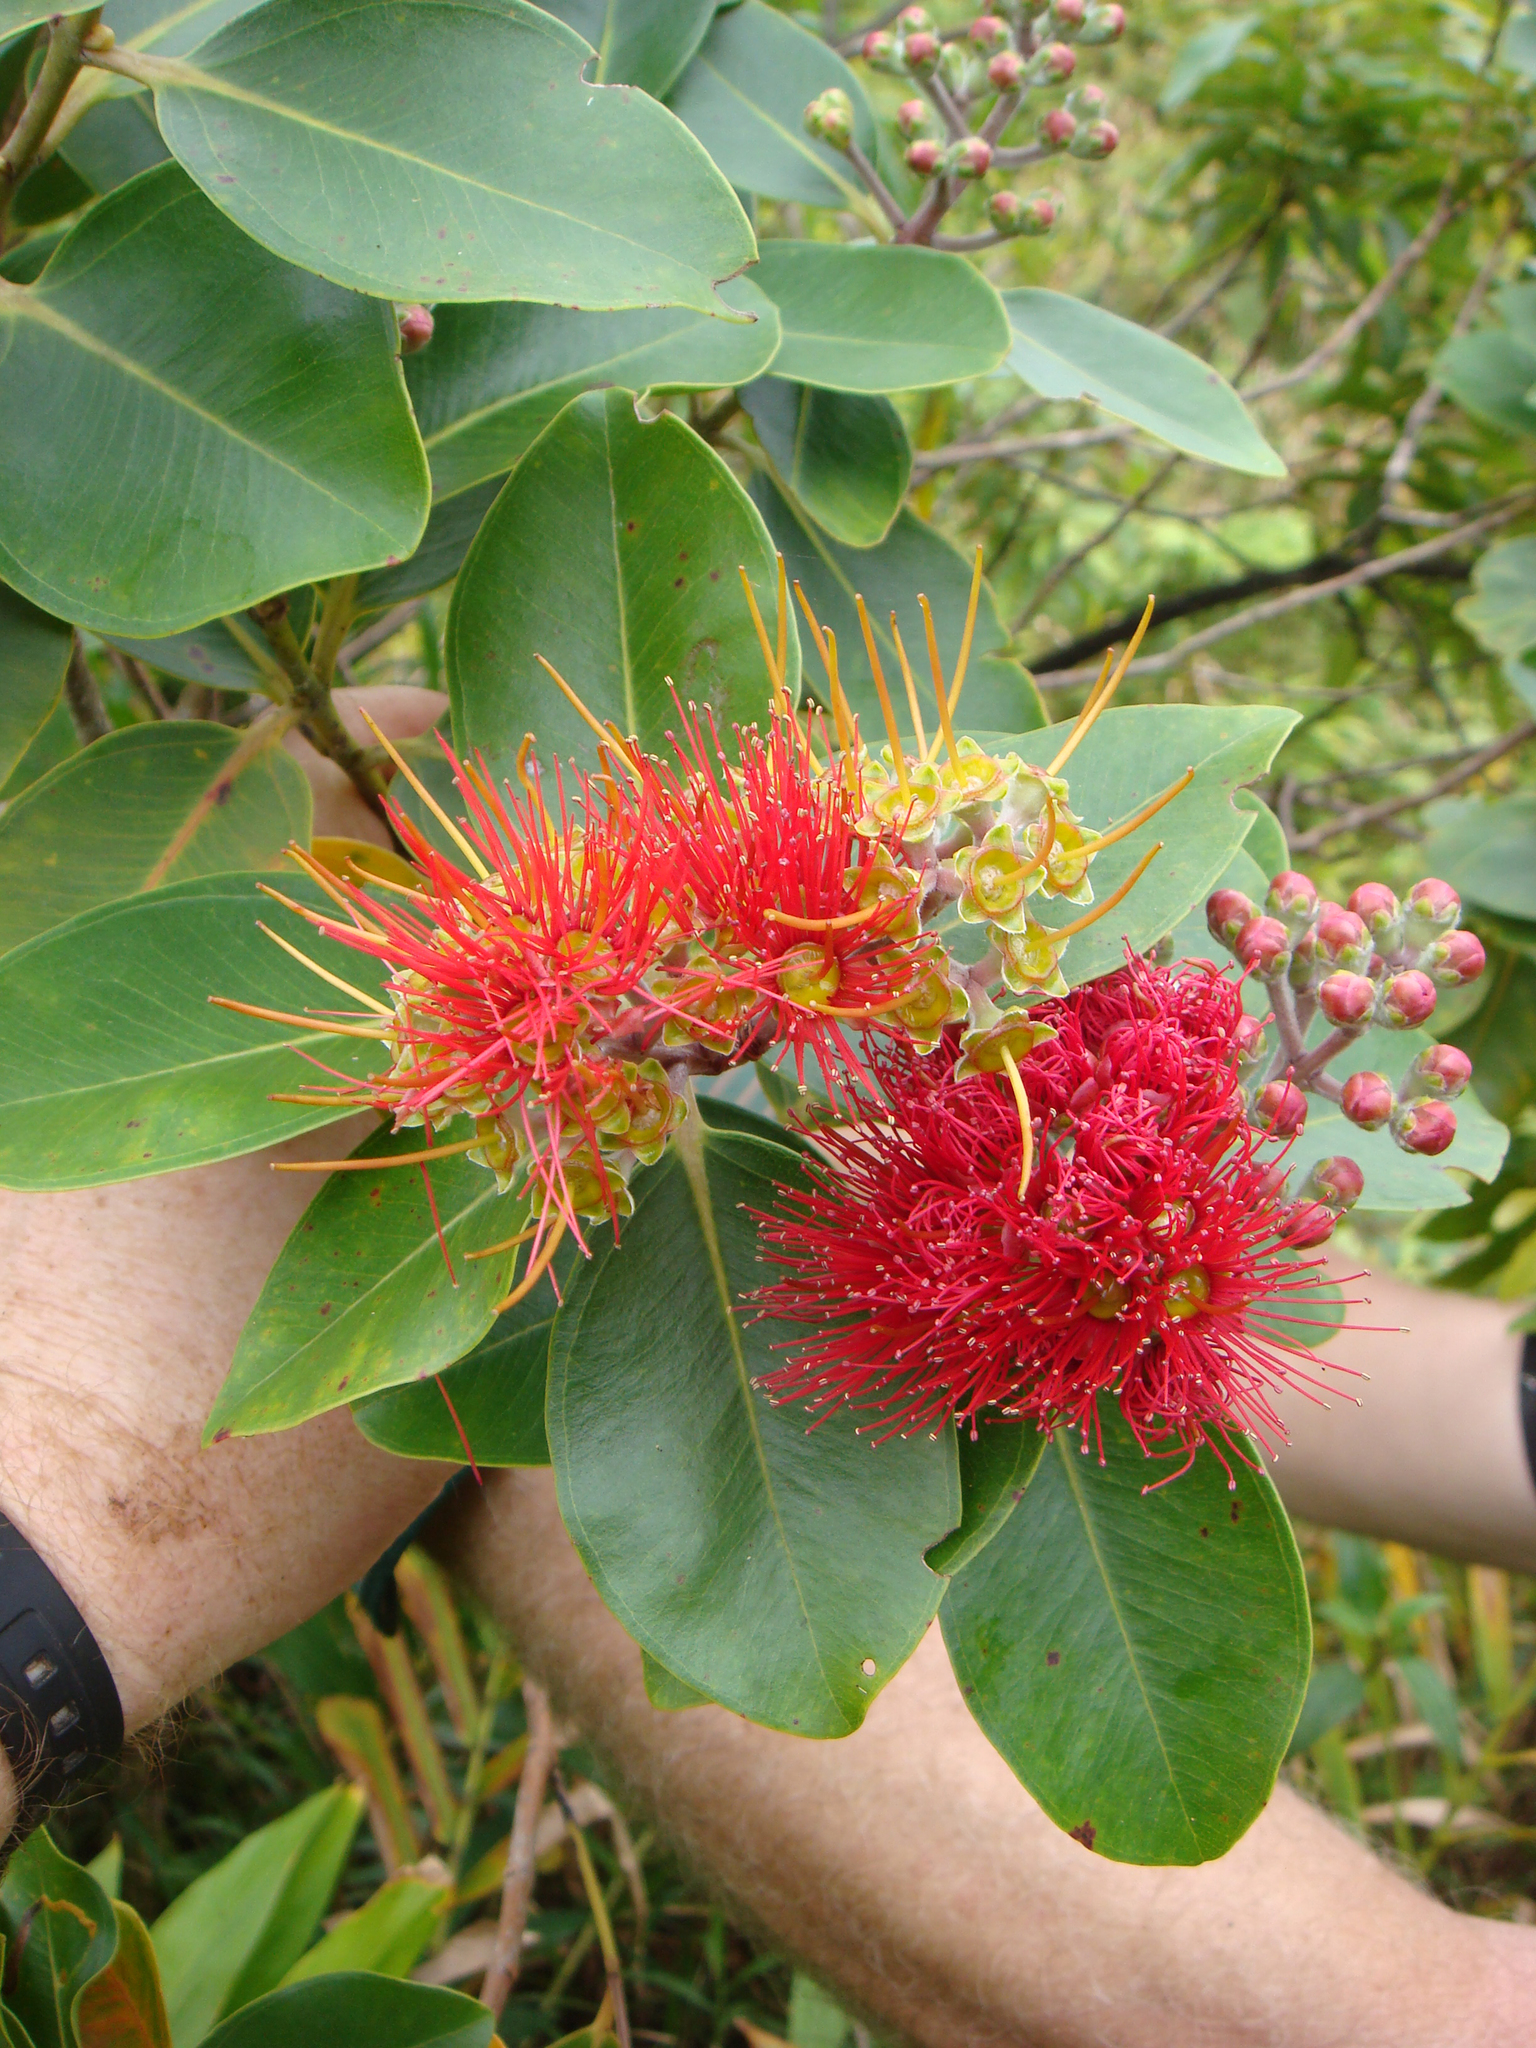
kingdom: Plantae
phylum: Tracheophyta
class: Magnoliopsida
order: Myrtales
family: Myrtaceae
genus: Metrosideros
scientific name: Metrosideros collina
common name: Vunga
